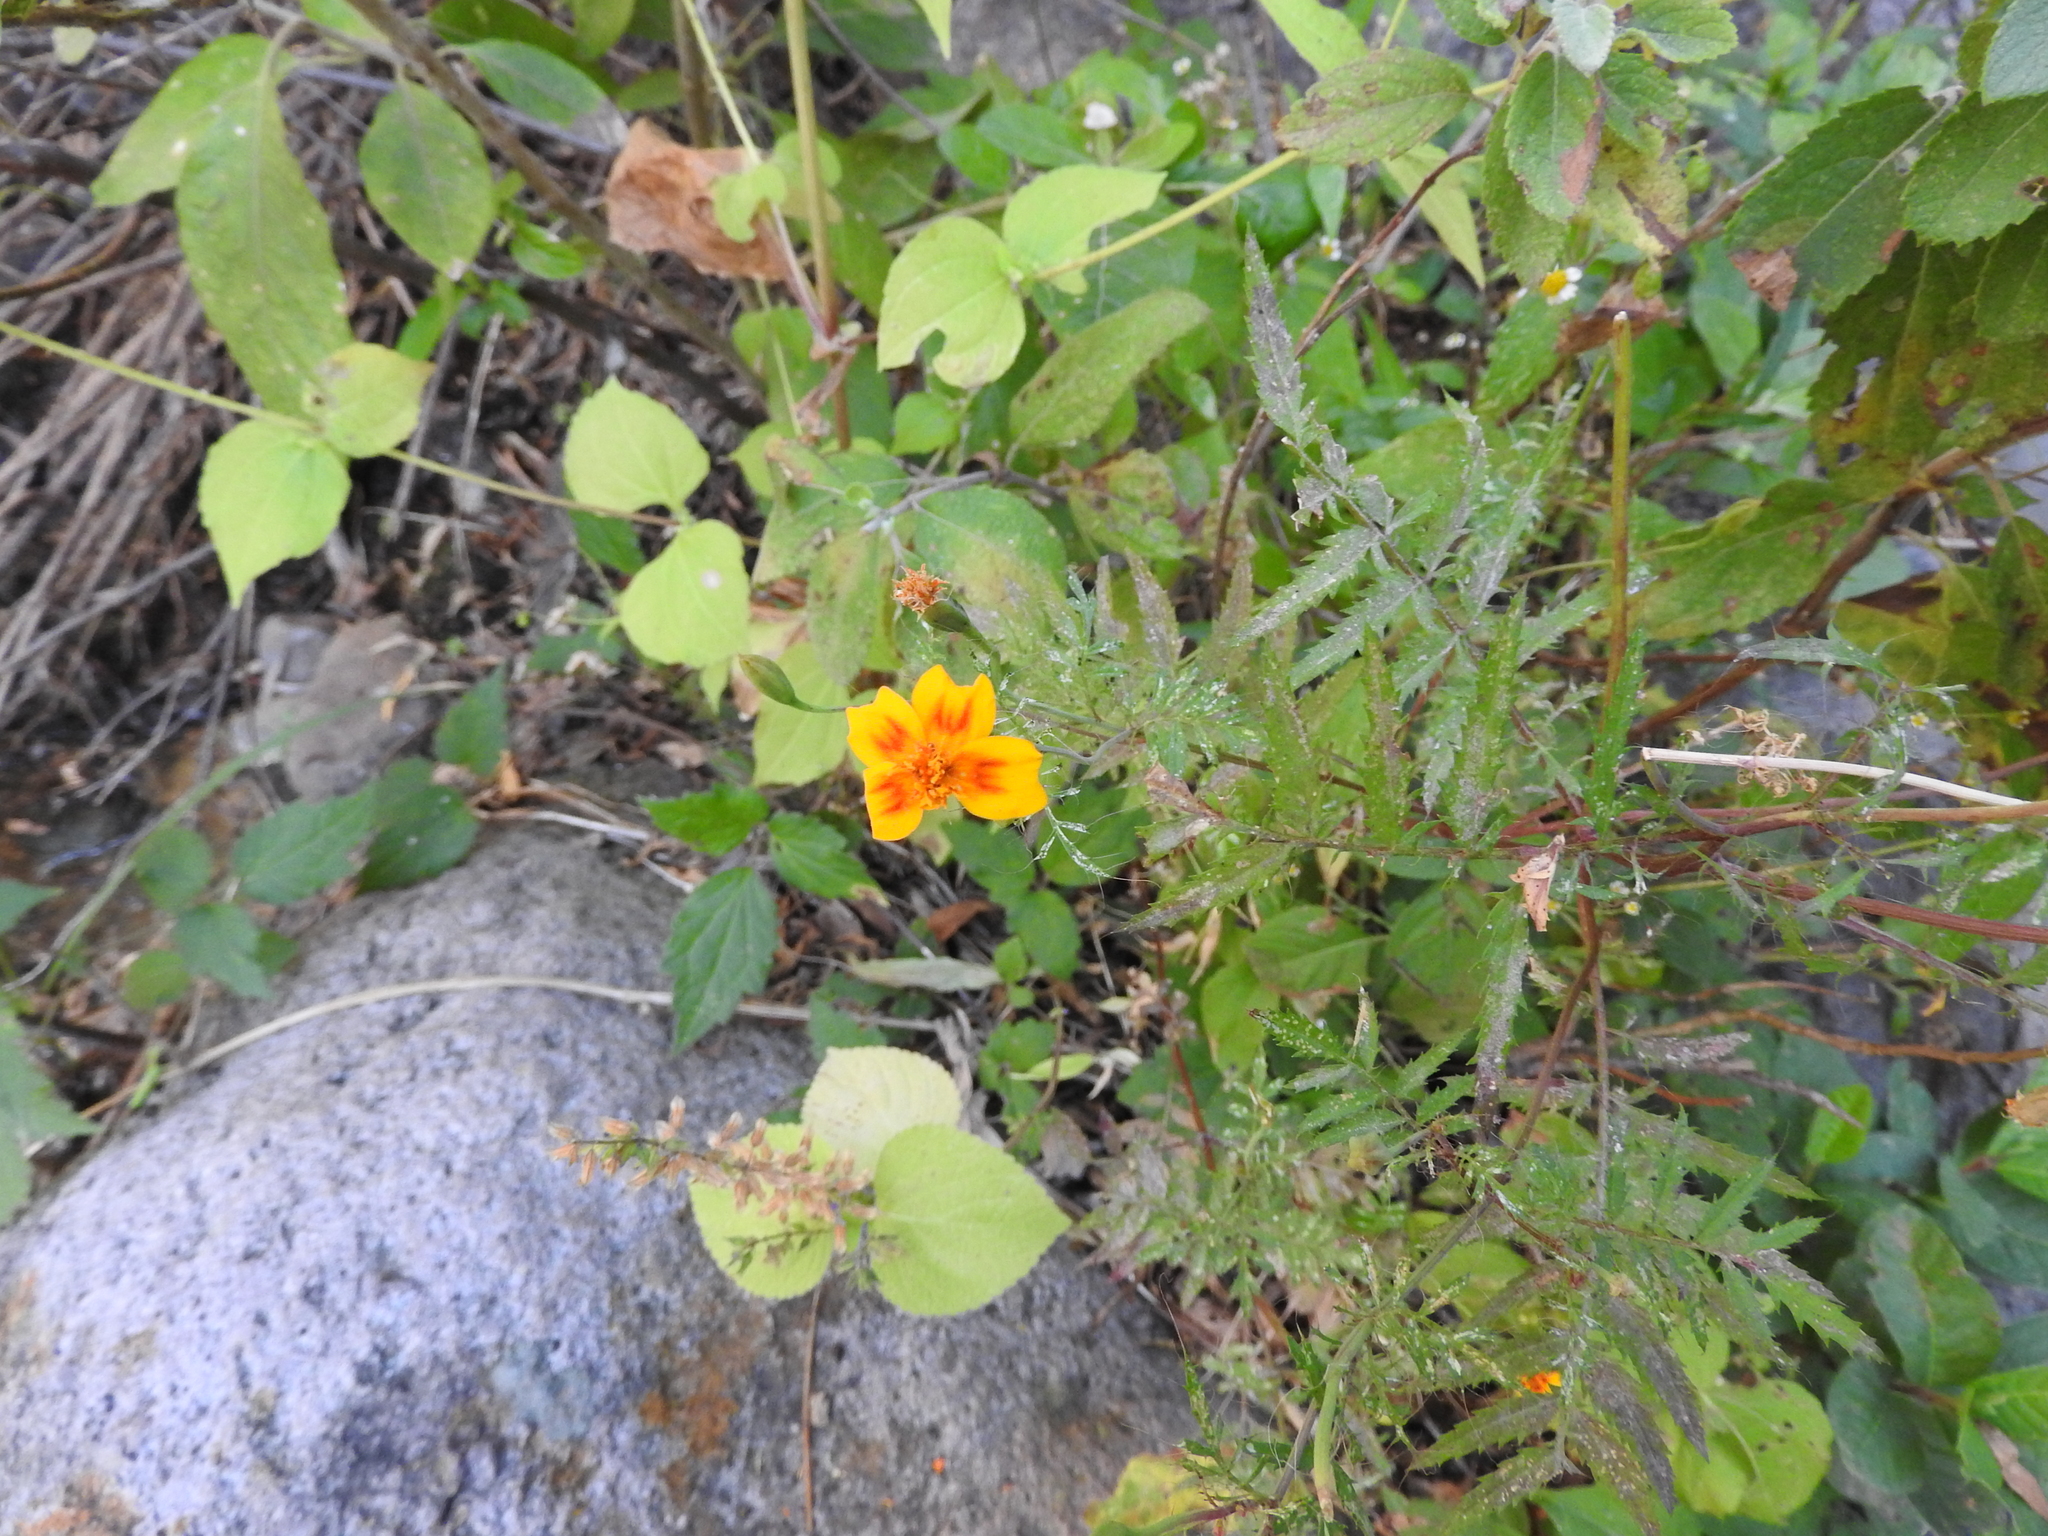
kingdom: Plantae
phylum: Tracheophyta
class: Magnoliopsida
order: Asterales
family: Asteraceae
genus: Tagetes
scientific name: Tagetes lunulata
